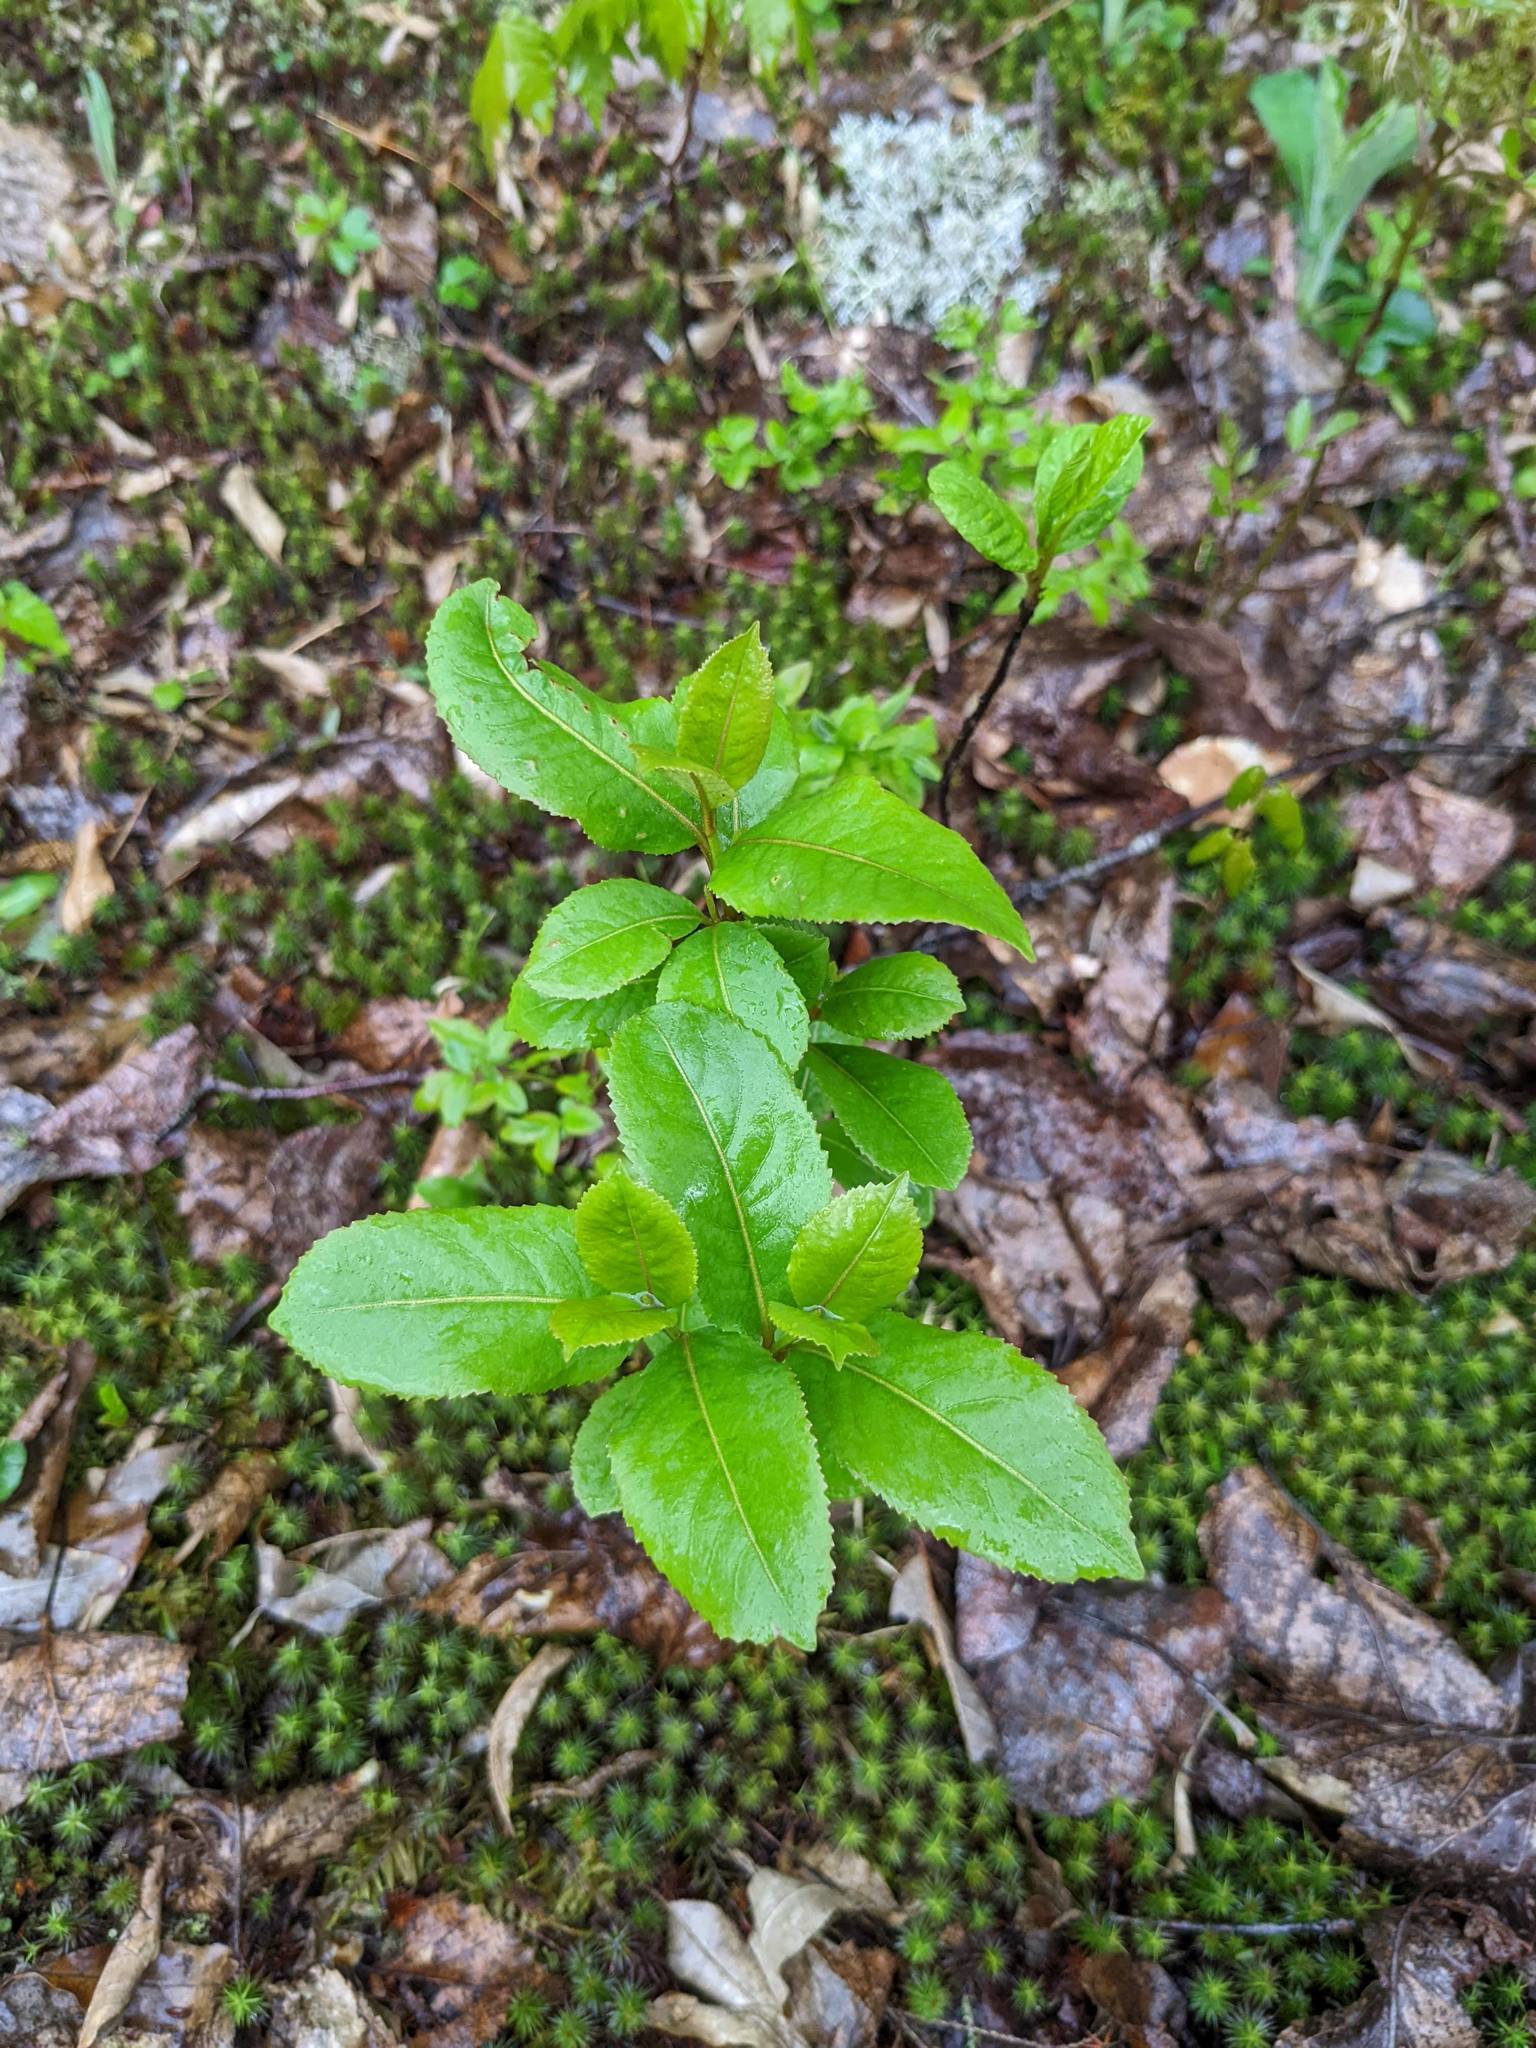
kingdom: Plantae
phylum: Tracheophyta
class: Magnoliopsida
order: Dipsacales
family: Viburnaceae
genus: Viburnum
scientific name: Viburnum cassinoides
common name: Swamp haw
